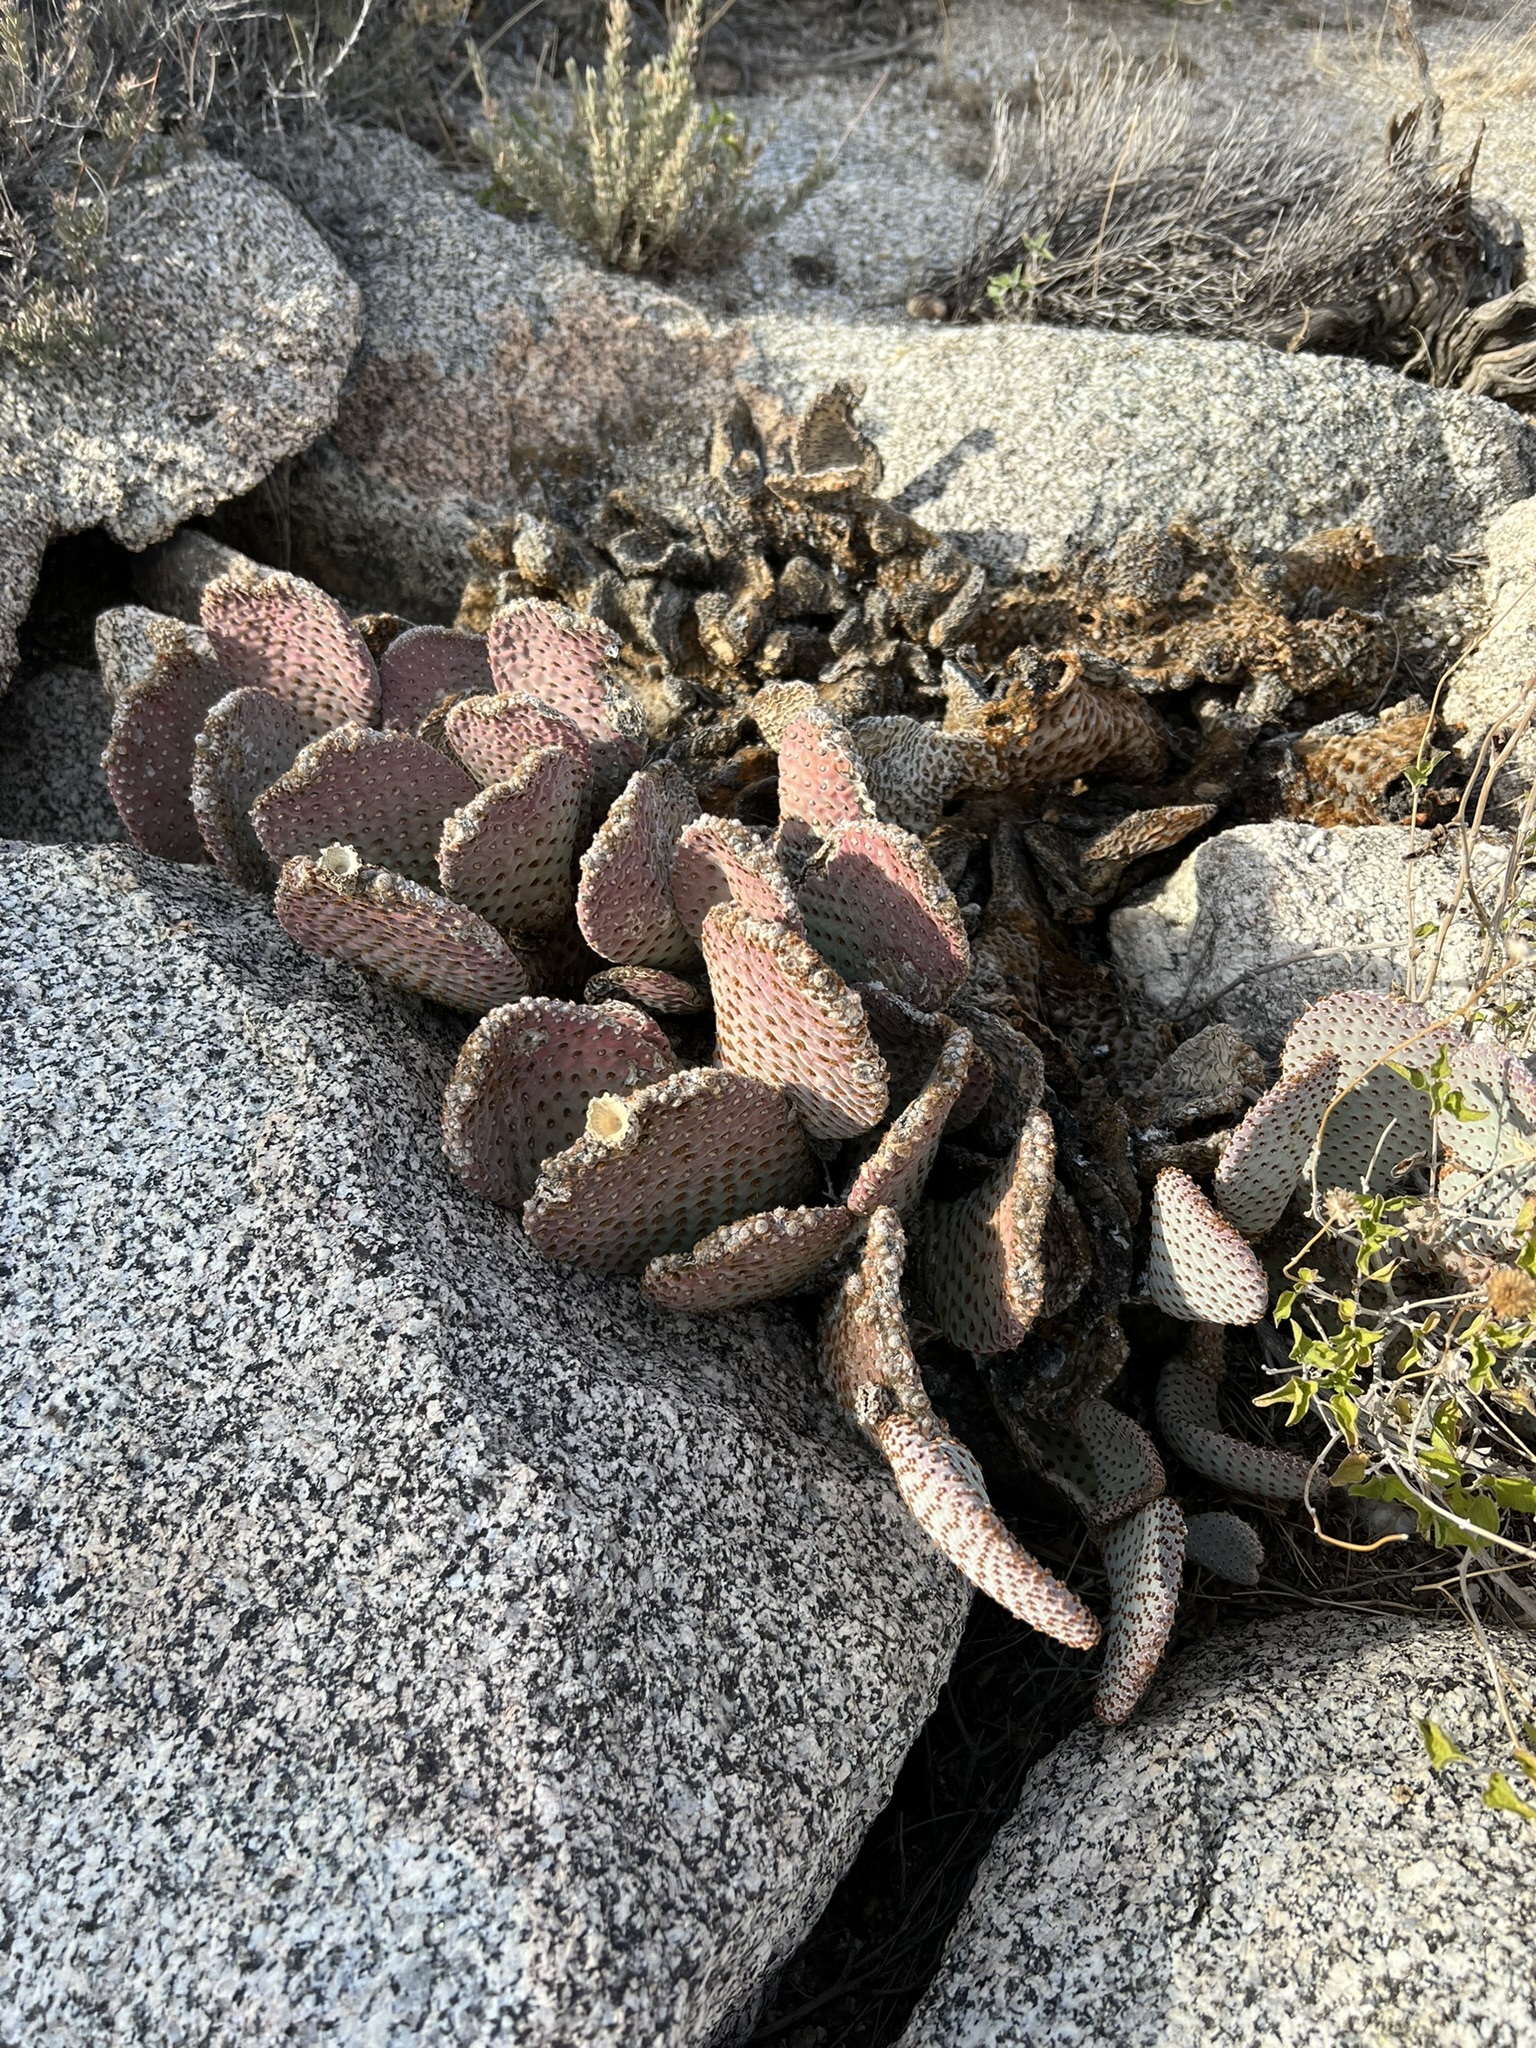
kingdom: Plantae
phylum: Tracheophyta
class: Magnoliopsida
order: Caryophyllales
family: Cactaceae
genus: Opuntia
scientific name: Opuntia basilaris
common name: Beavertail prickly-pear
